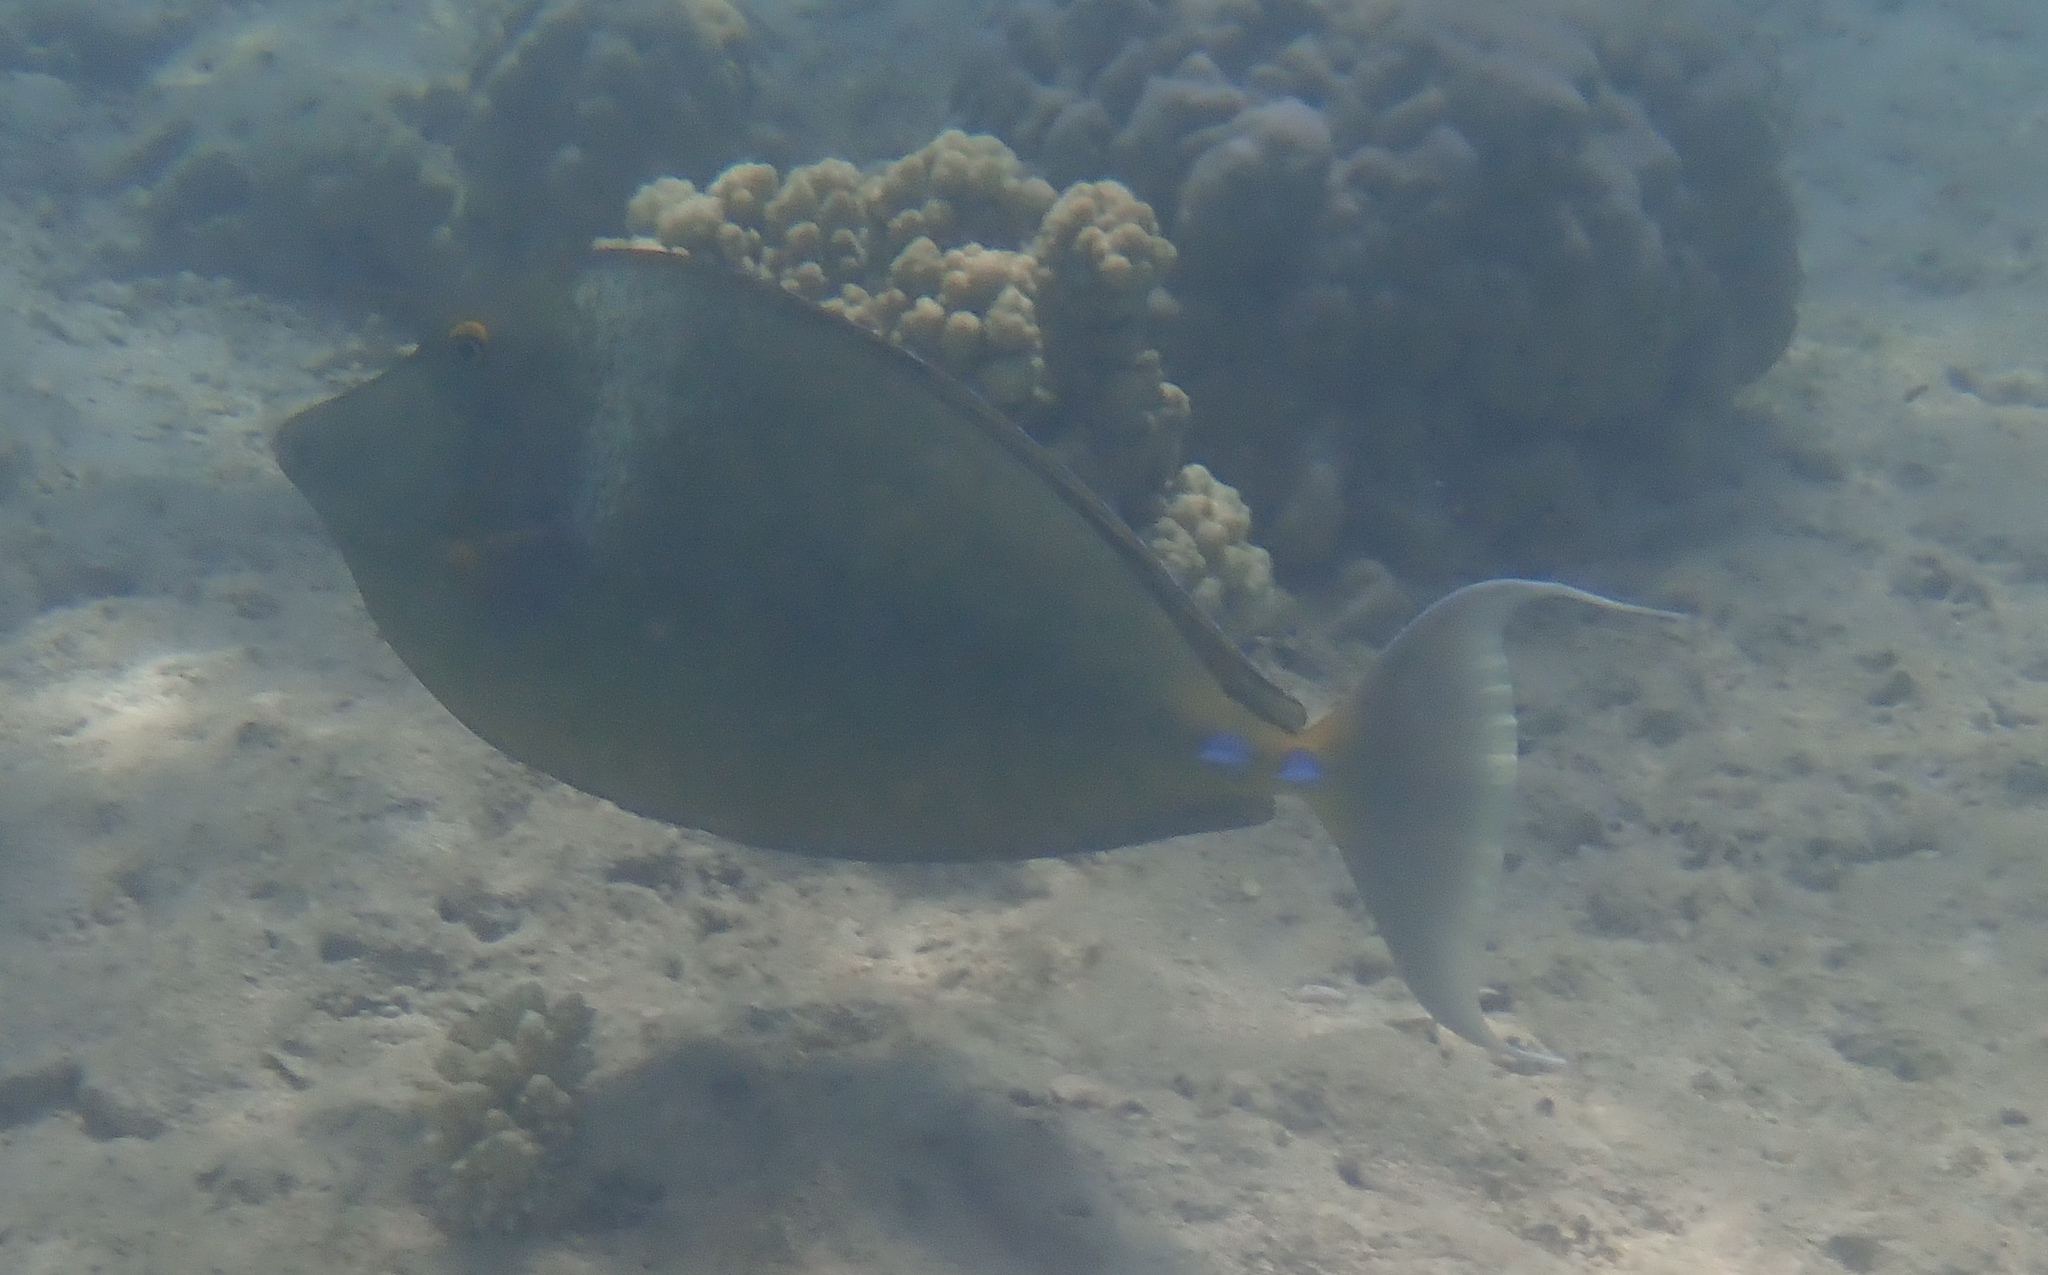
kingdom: Animalia
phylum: Chordata
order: Perciformes
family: Acanthuridae
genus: Naso
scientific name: Naso unicornis
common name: Bluespine unicornfish
